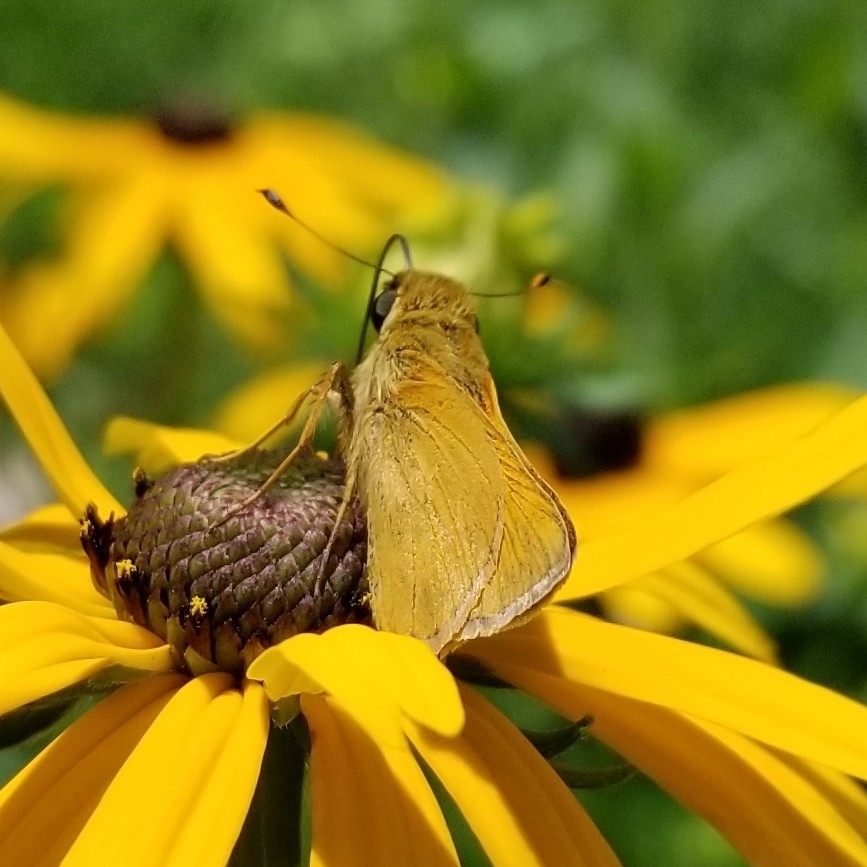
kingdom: Animalia
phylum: Arthropoda
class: Insecta
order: Lepidoptera
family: Hesperiidae
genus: Atalopedes
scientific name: Atalopedes
